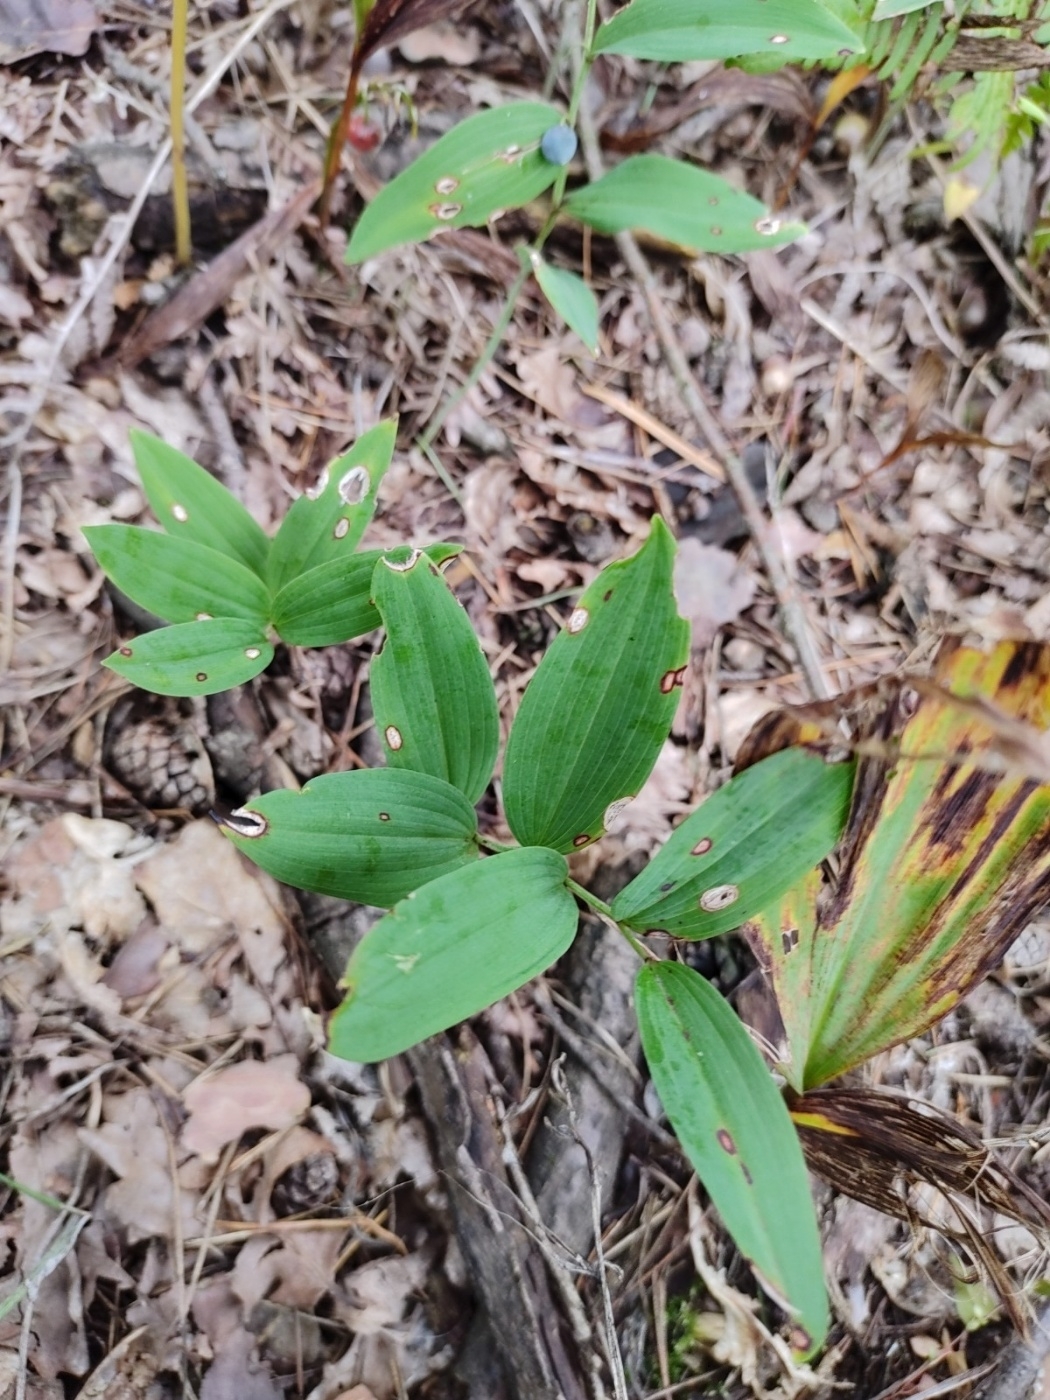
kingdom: Plantae
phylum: Tracheophyta
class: Liliopsida
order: Asparagales
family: Asparagaceae
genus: Polygonatum
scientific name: Polygonatum odoratum
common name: Angular solomon's-seal
